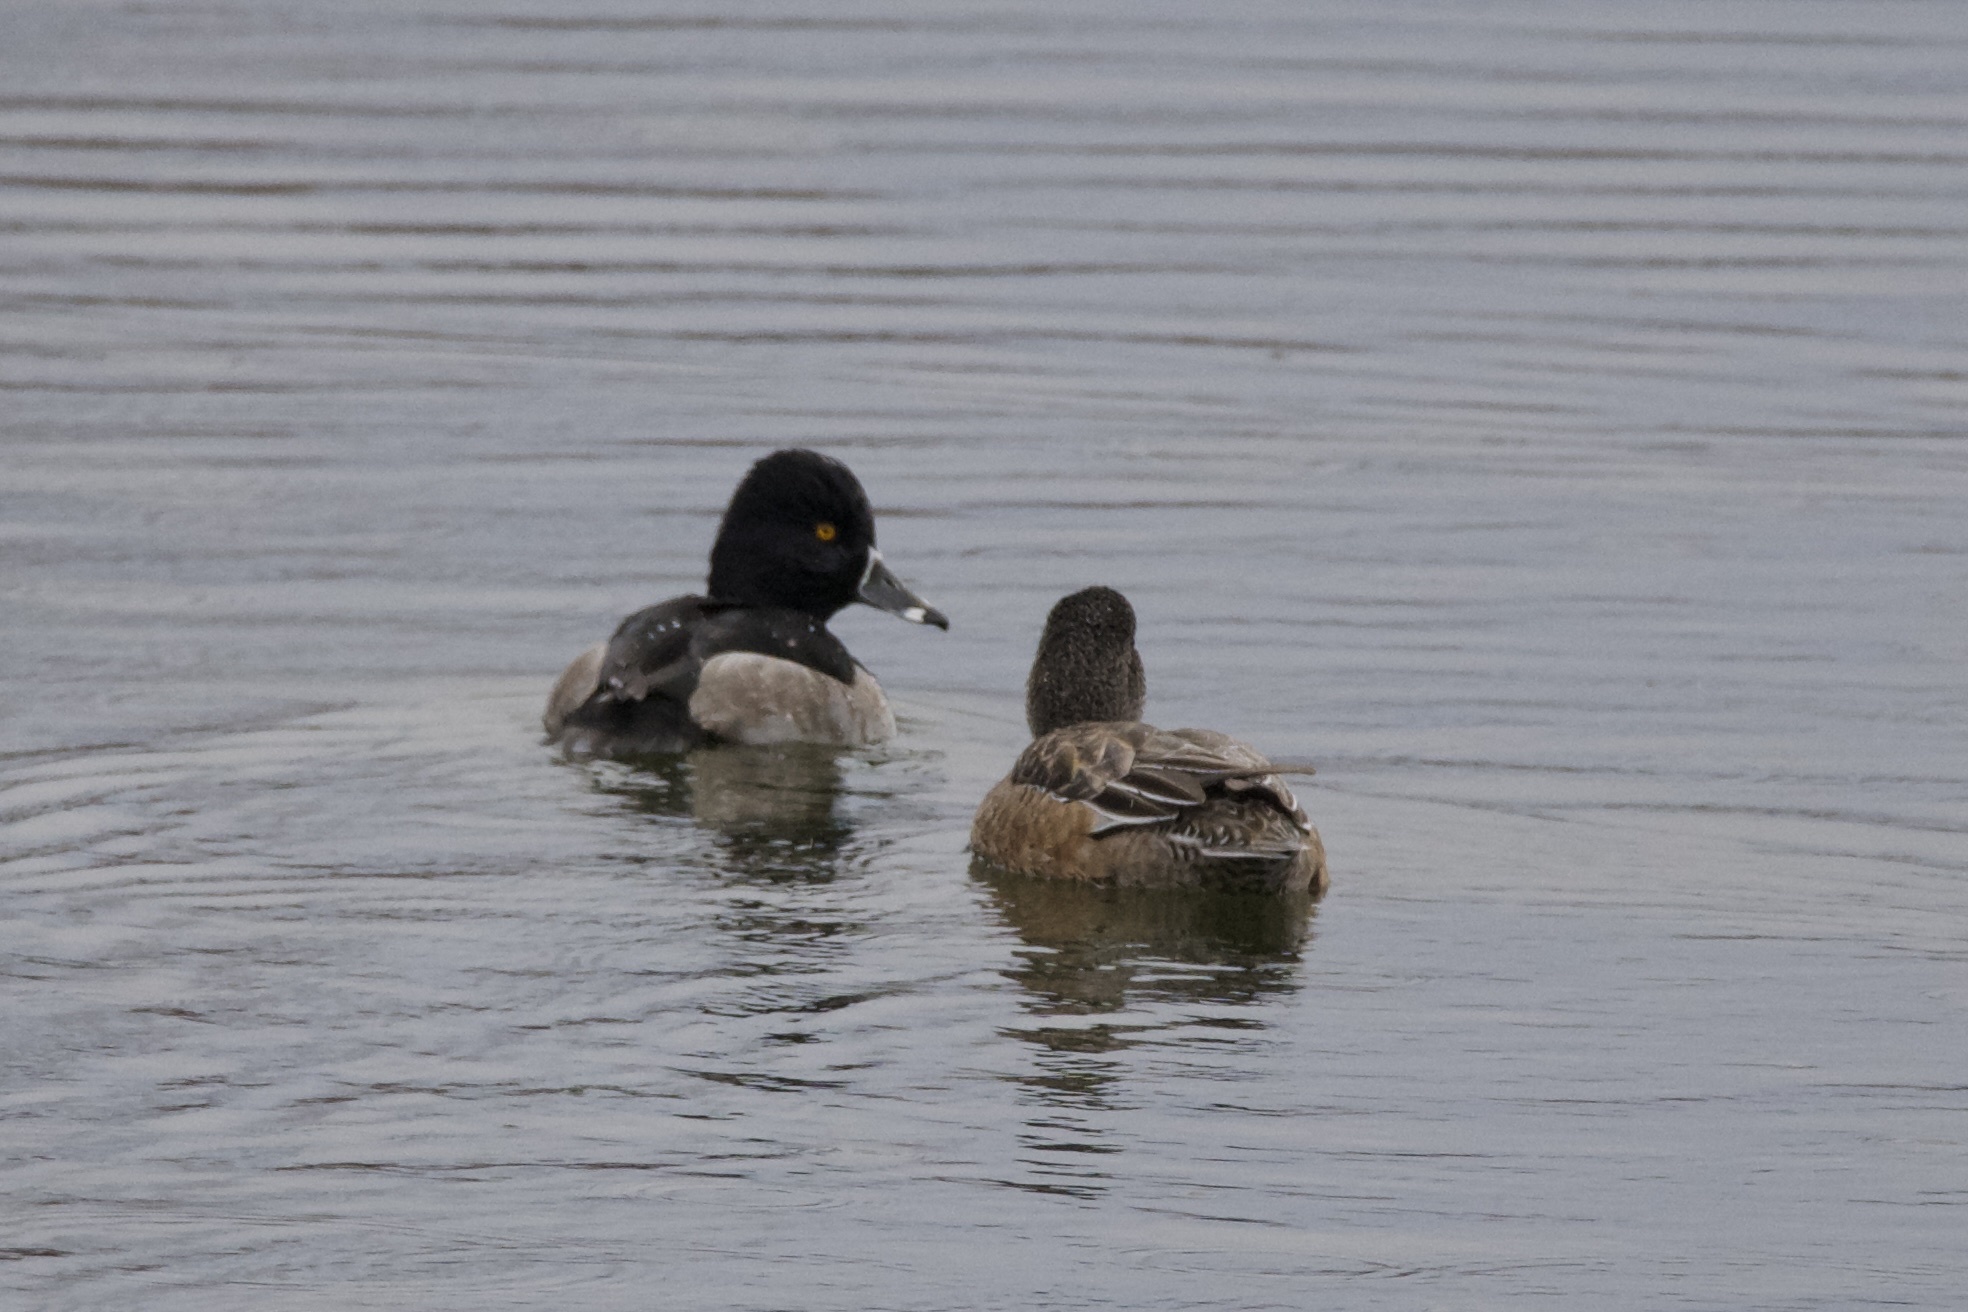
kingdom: Animalia
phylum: Chordata
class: Aves
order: Anseriformes
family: Anatidae
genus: Aythya
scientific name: Aythya collaris
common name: Ring-necked duck
